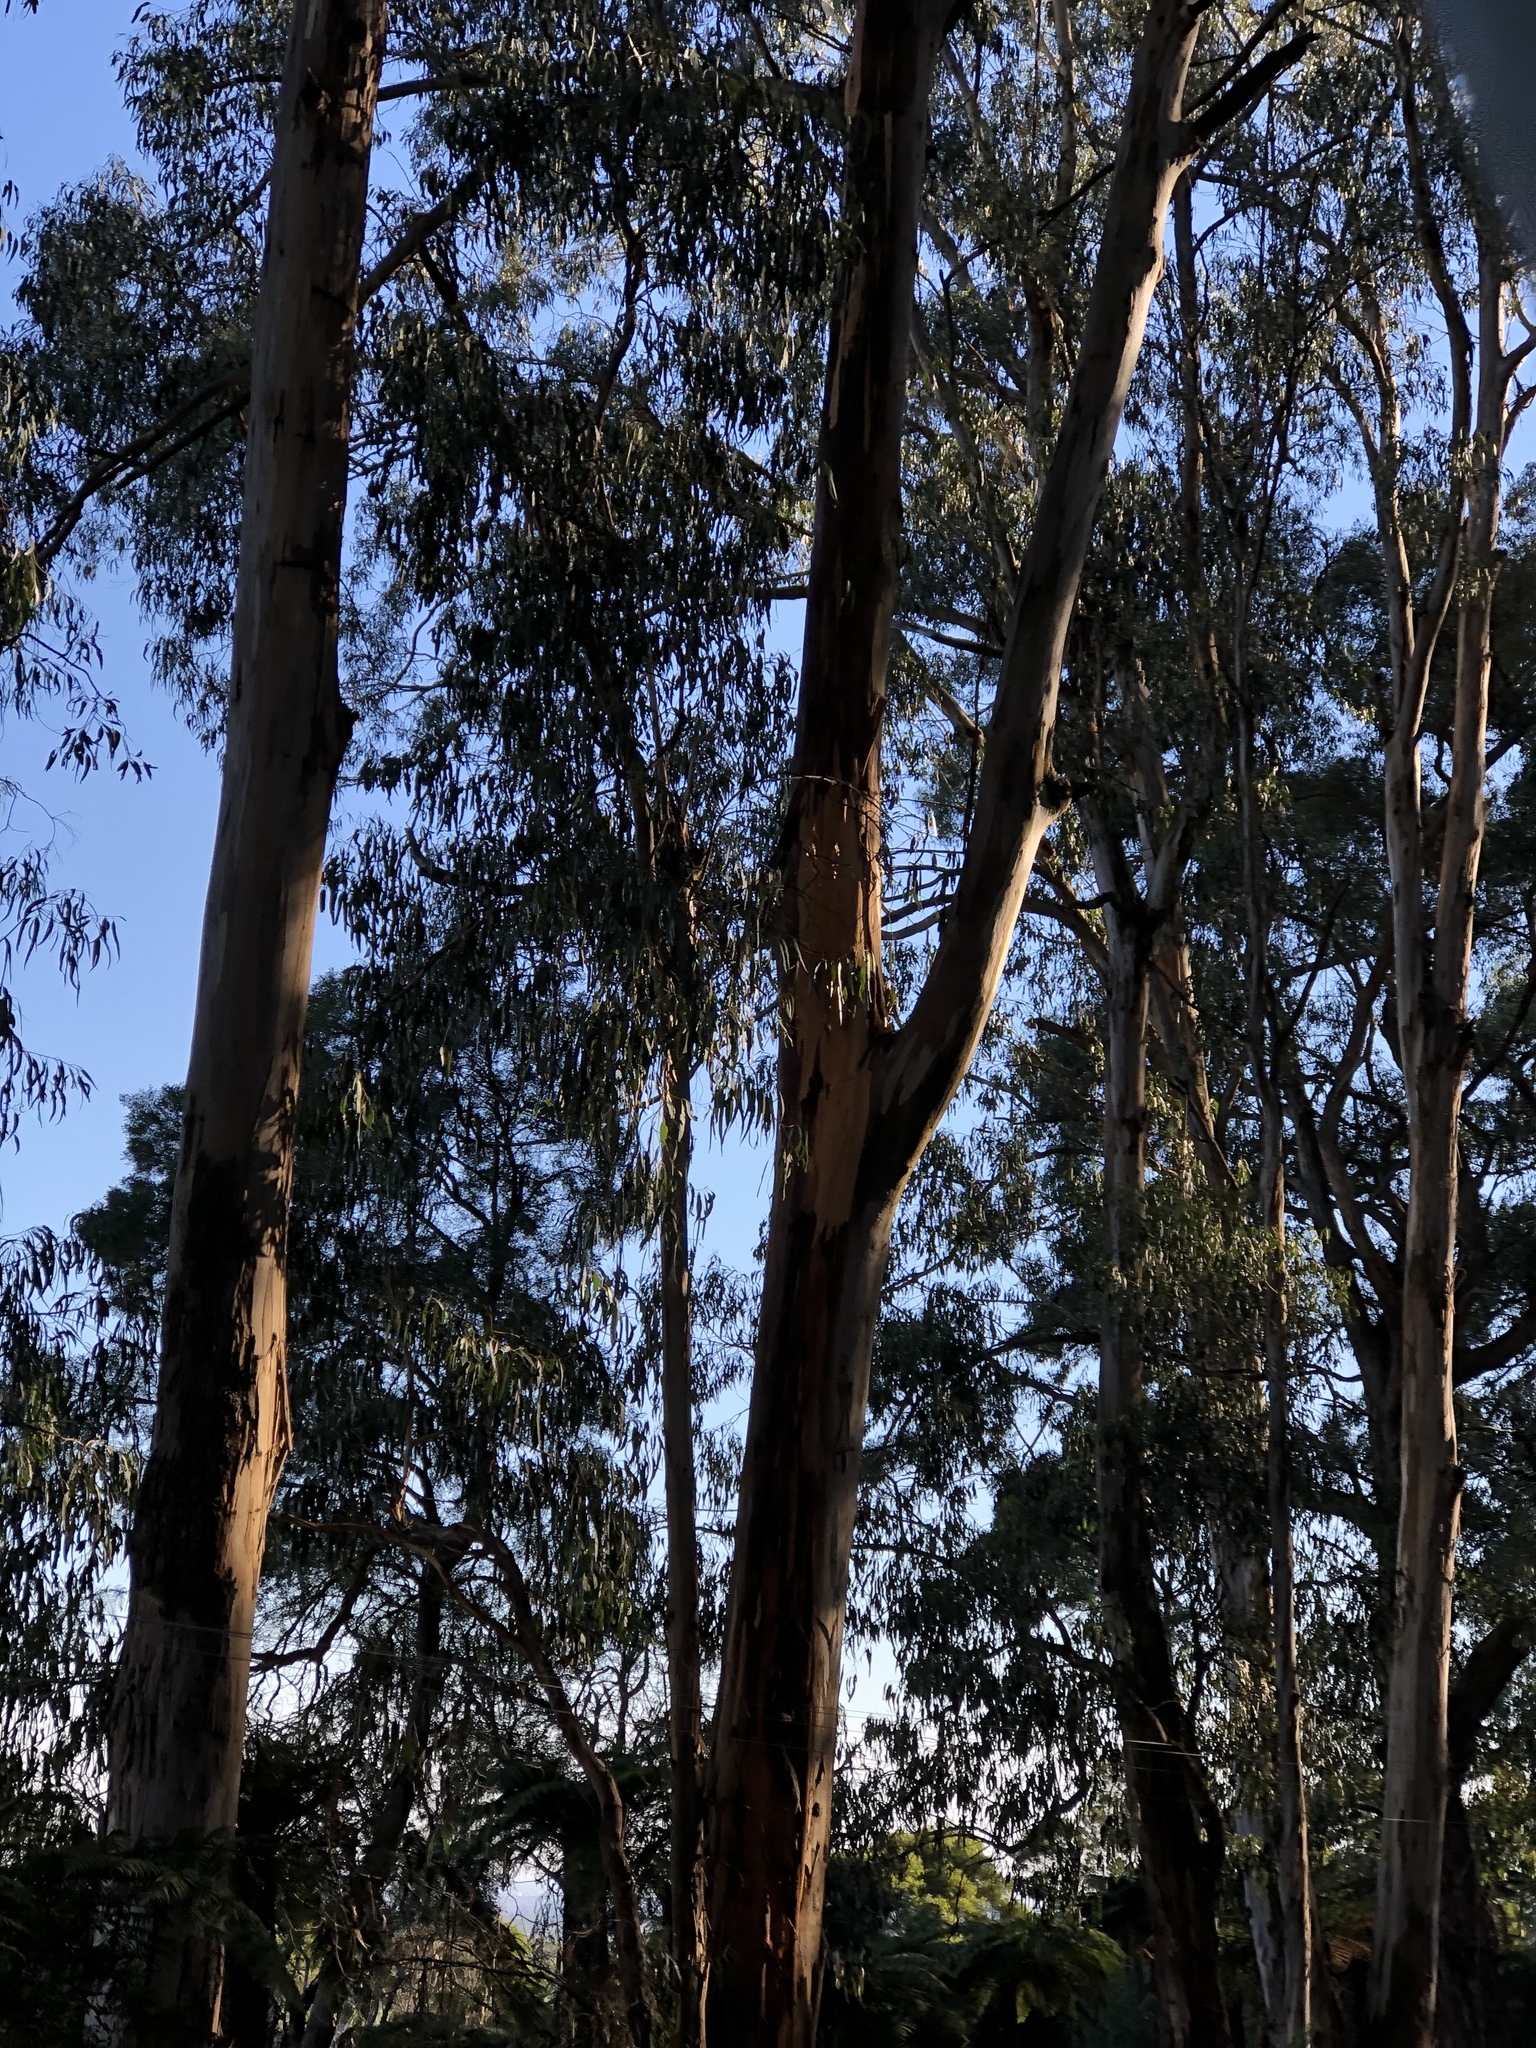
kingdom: Plantae
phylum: Tracheophyta
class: Magnoliopsida
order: Myrtales
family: Myrtaceae
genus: Eucalyptus
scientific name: Eucalyptus cypellocarpa
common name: Mountain grey gum
